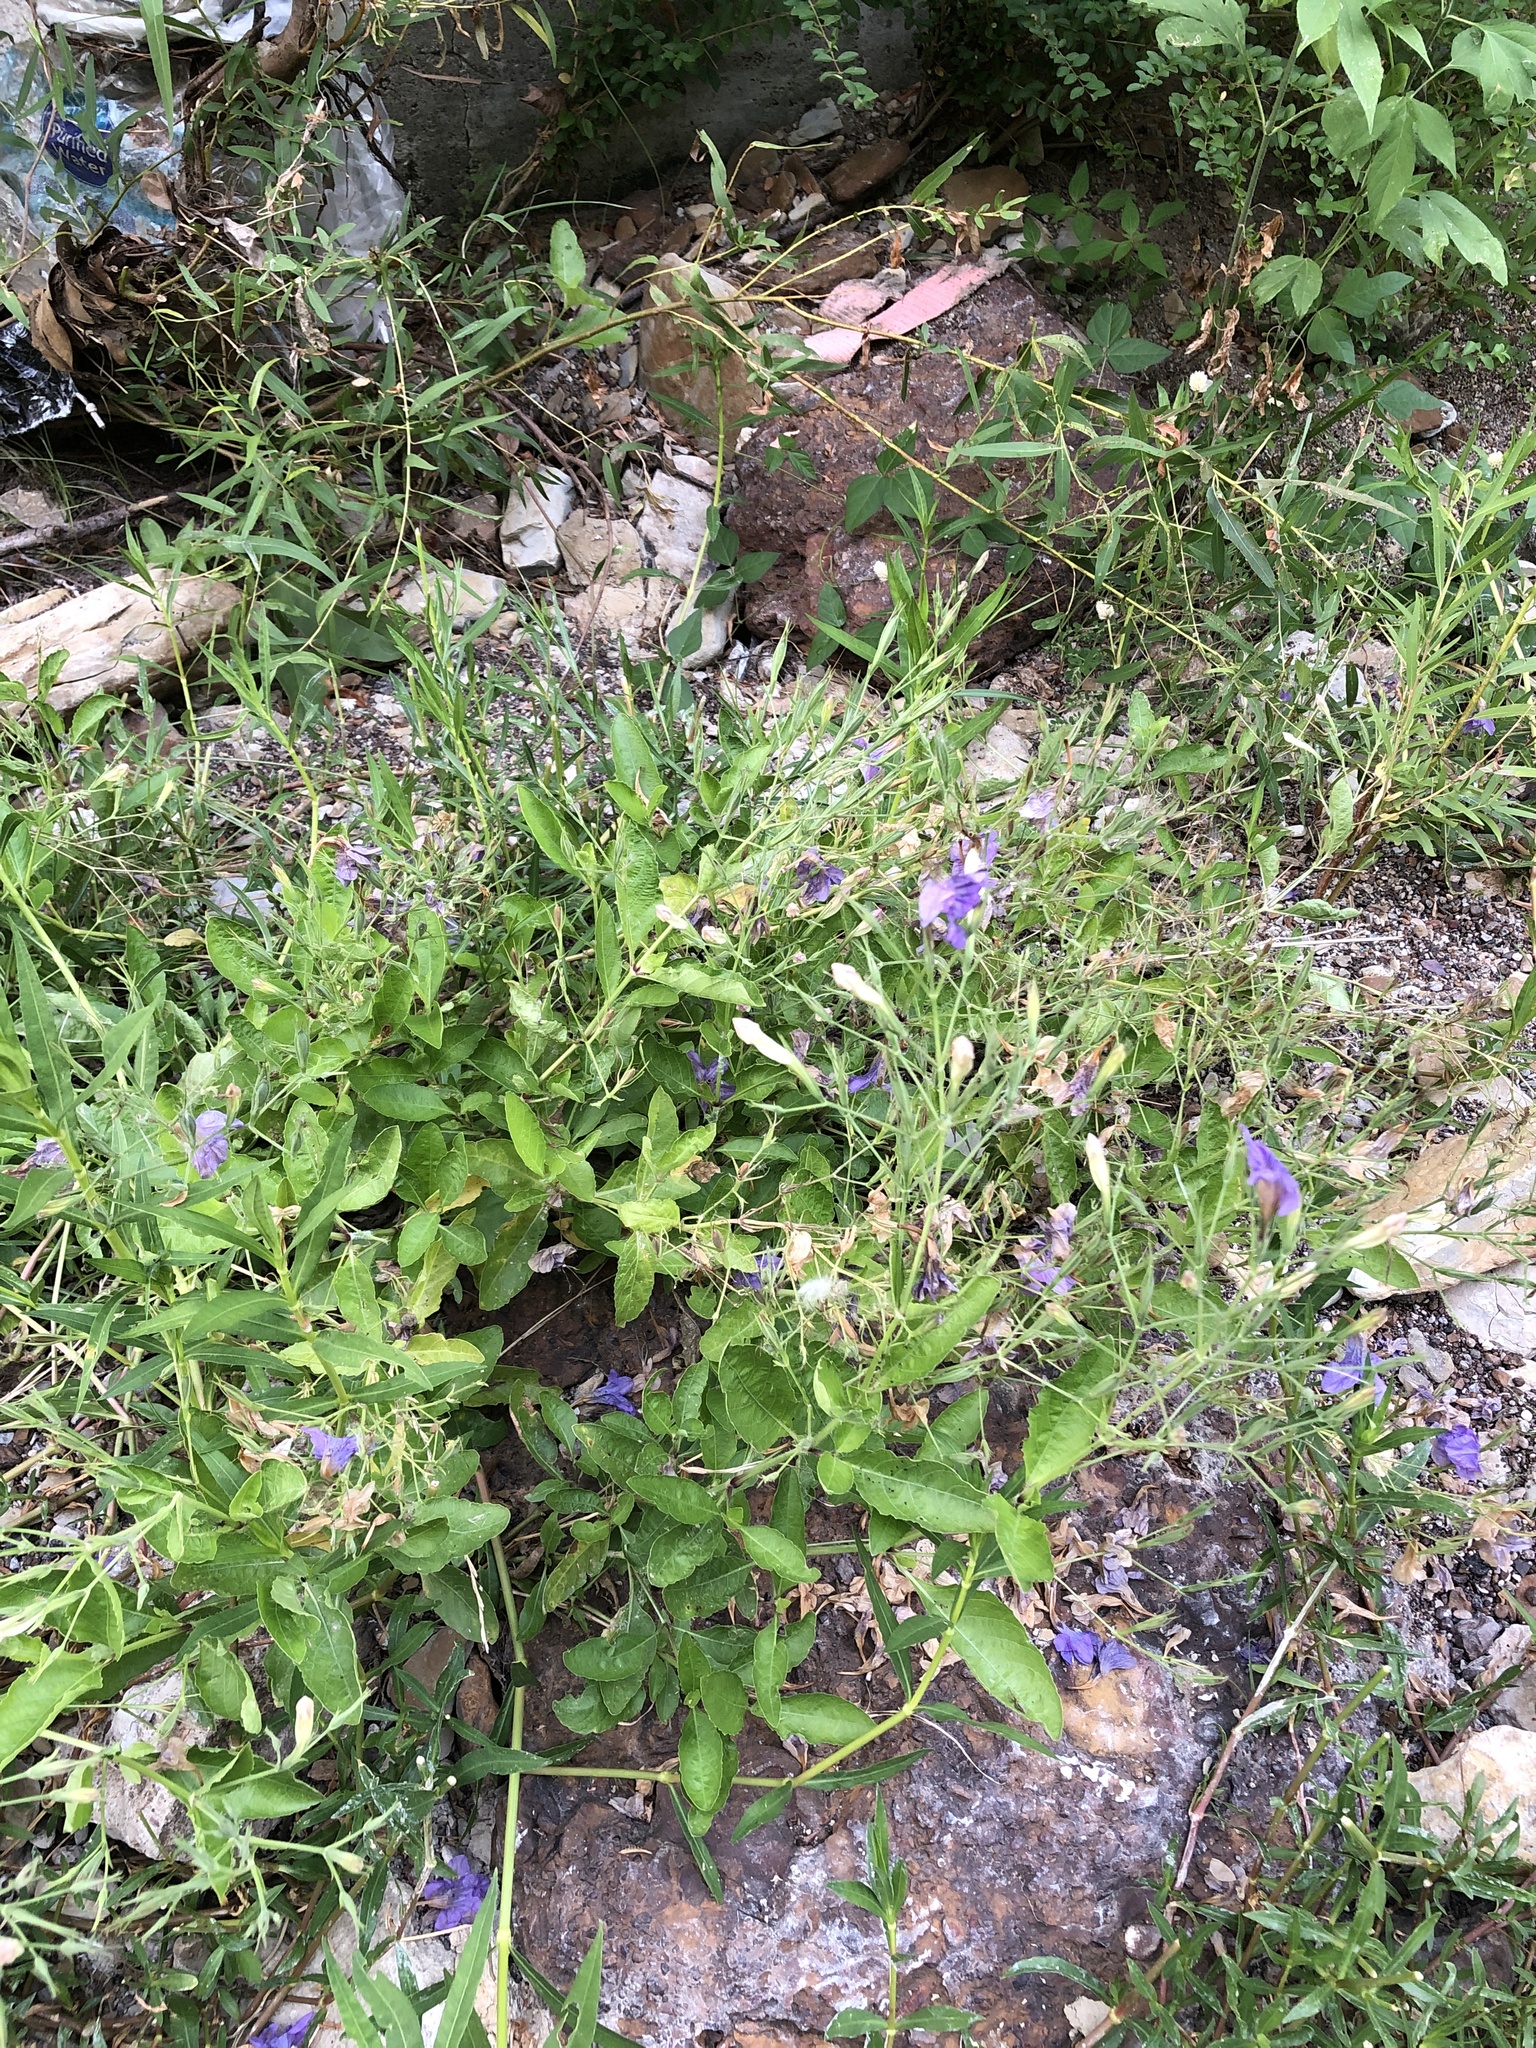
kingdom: Plantae
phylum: Tracheophyta
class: Magnoliopsida
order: Lamiales
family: Acanthaceae
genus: Ruellia
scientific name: Ruellia ciliatiflora
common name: Hairyflower wild petunia
